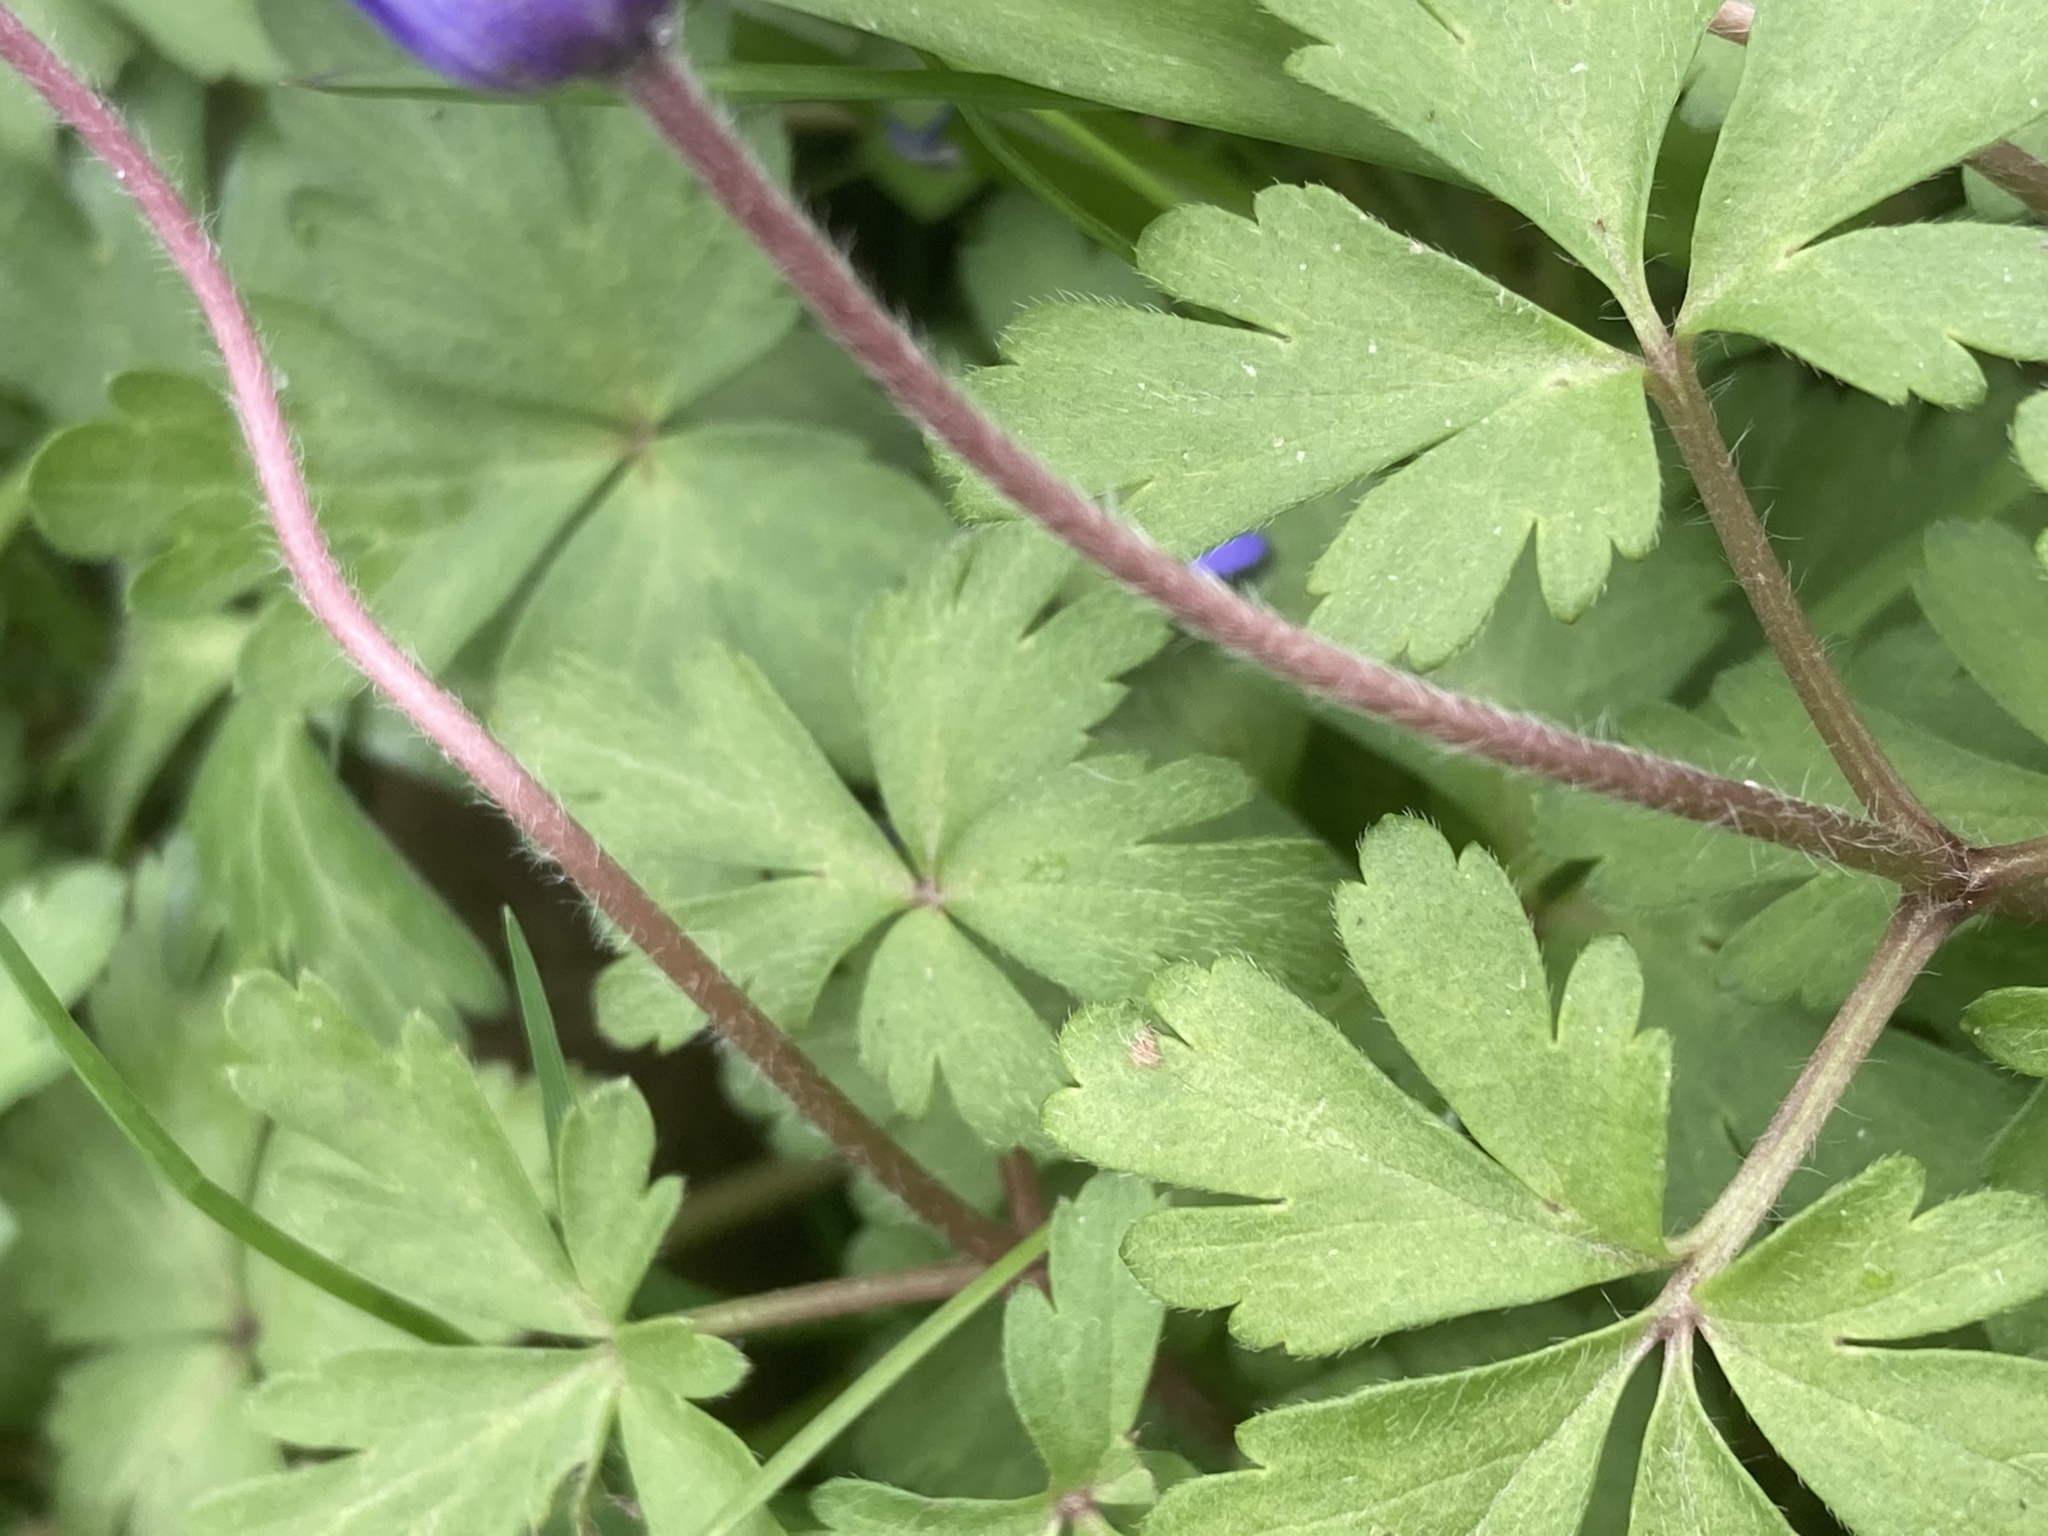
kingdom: Plantae
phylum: Tracheophyta
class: Magnoliopsida
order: Ranunculales
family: Ranunculaceae
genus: Anemone
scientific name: Anemone blanda
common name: Balkan anemone
